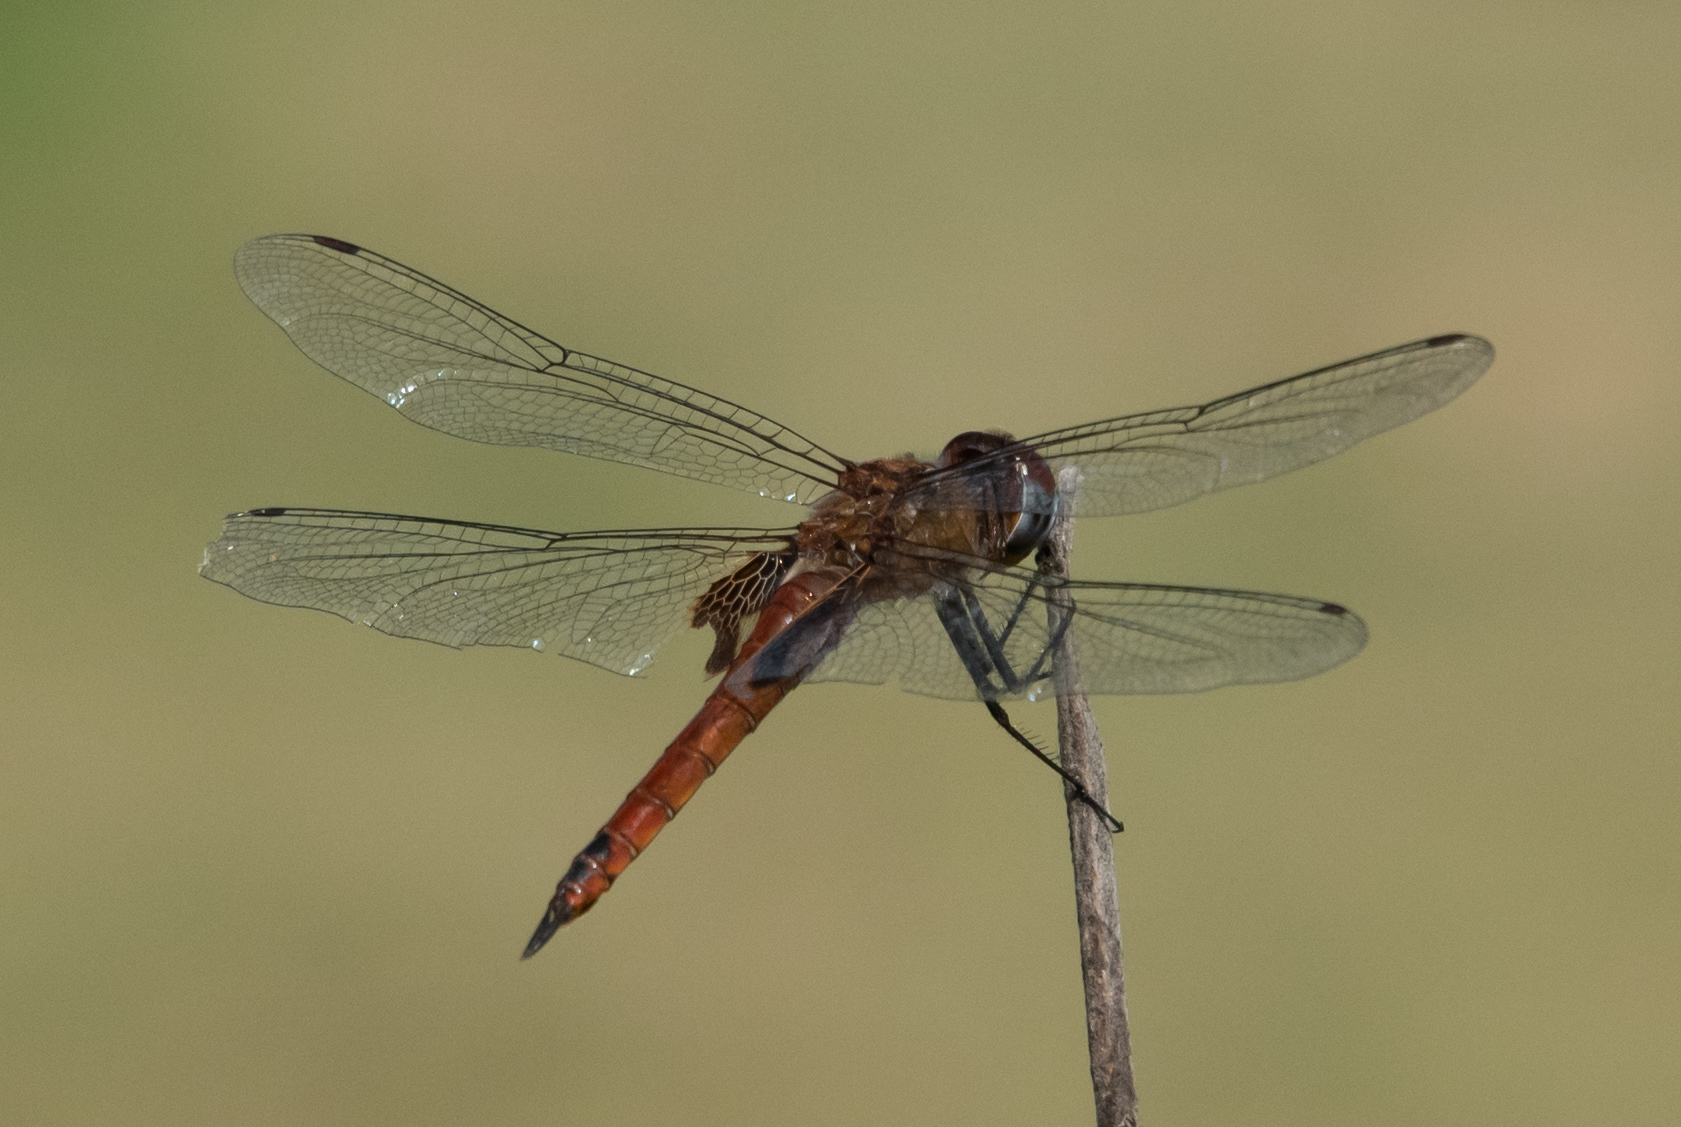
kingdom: Animalia
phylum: Arthropoda
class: Insecta
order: Odonata
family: Libellulidae
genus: Tramea
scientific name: Tramea abdominalis
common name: Vermilion saddlebags
